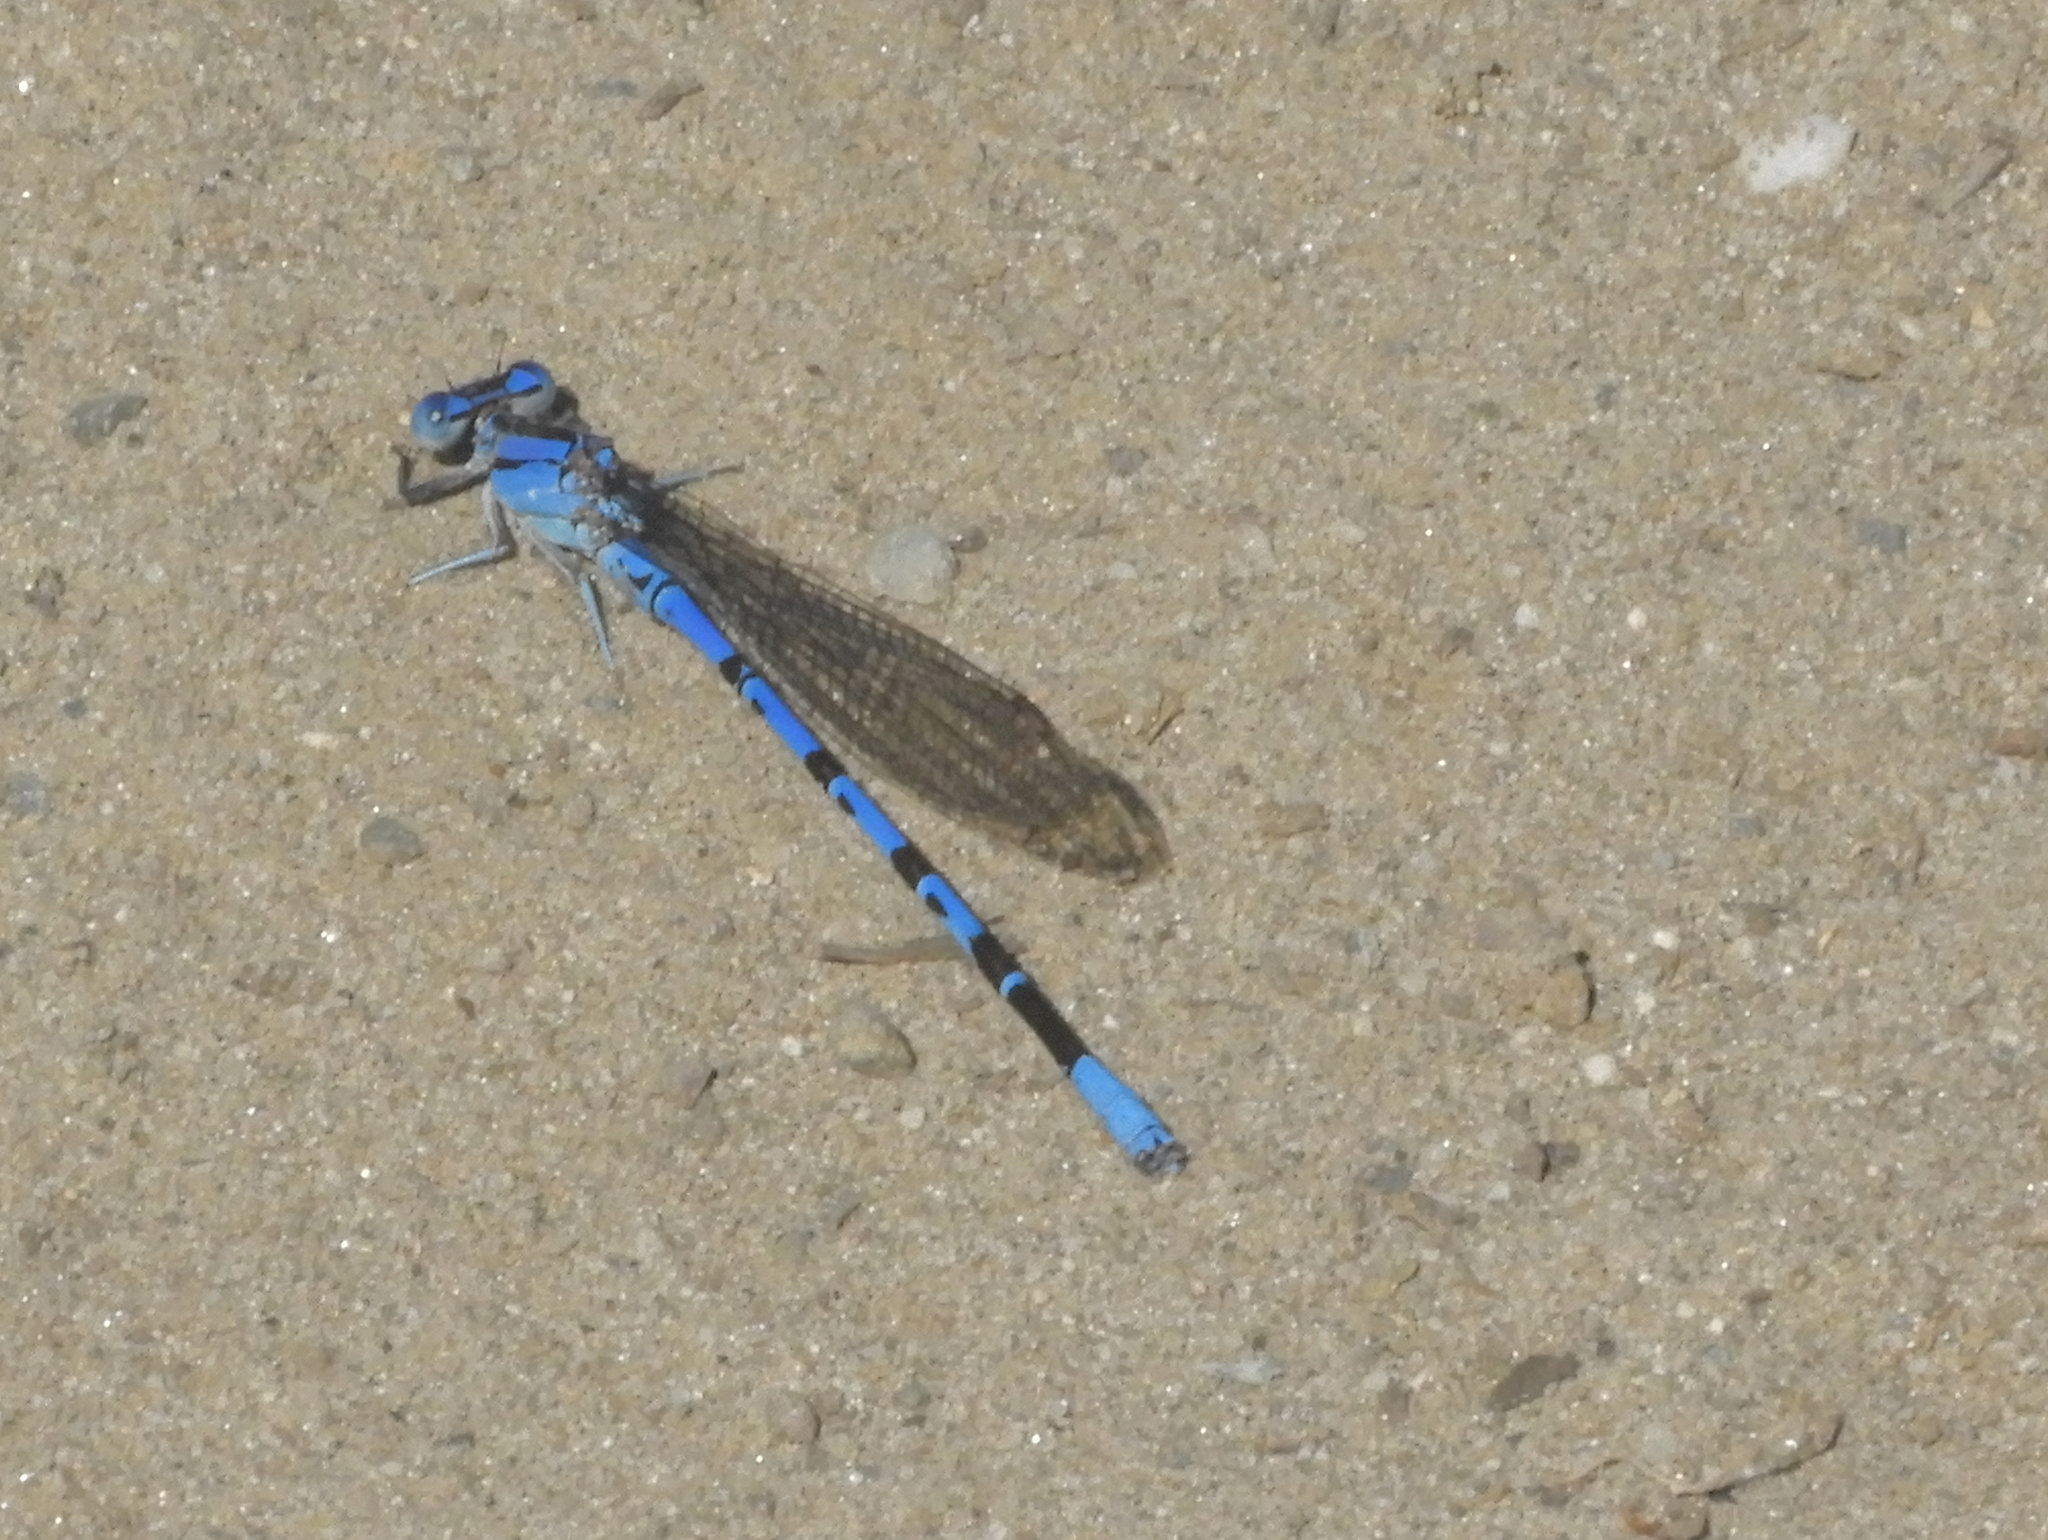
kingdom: Animalia
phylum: Arthropoda
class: Insecta
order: Odonata
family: Coenagrionidae
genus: Argia
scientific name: Argia vivida
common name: Vivid dancer
